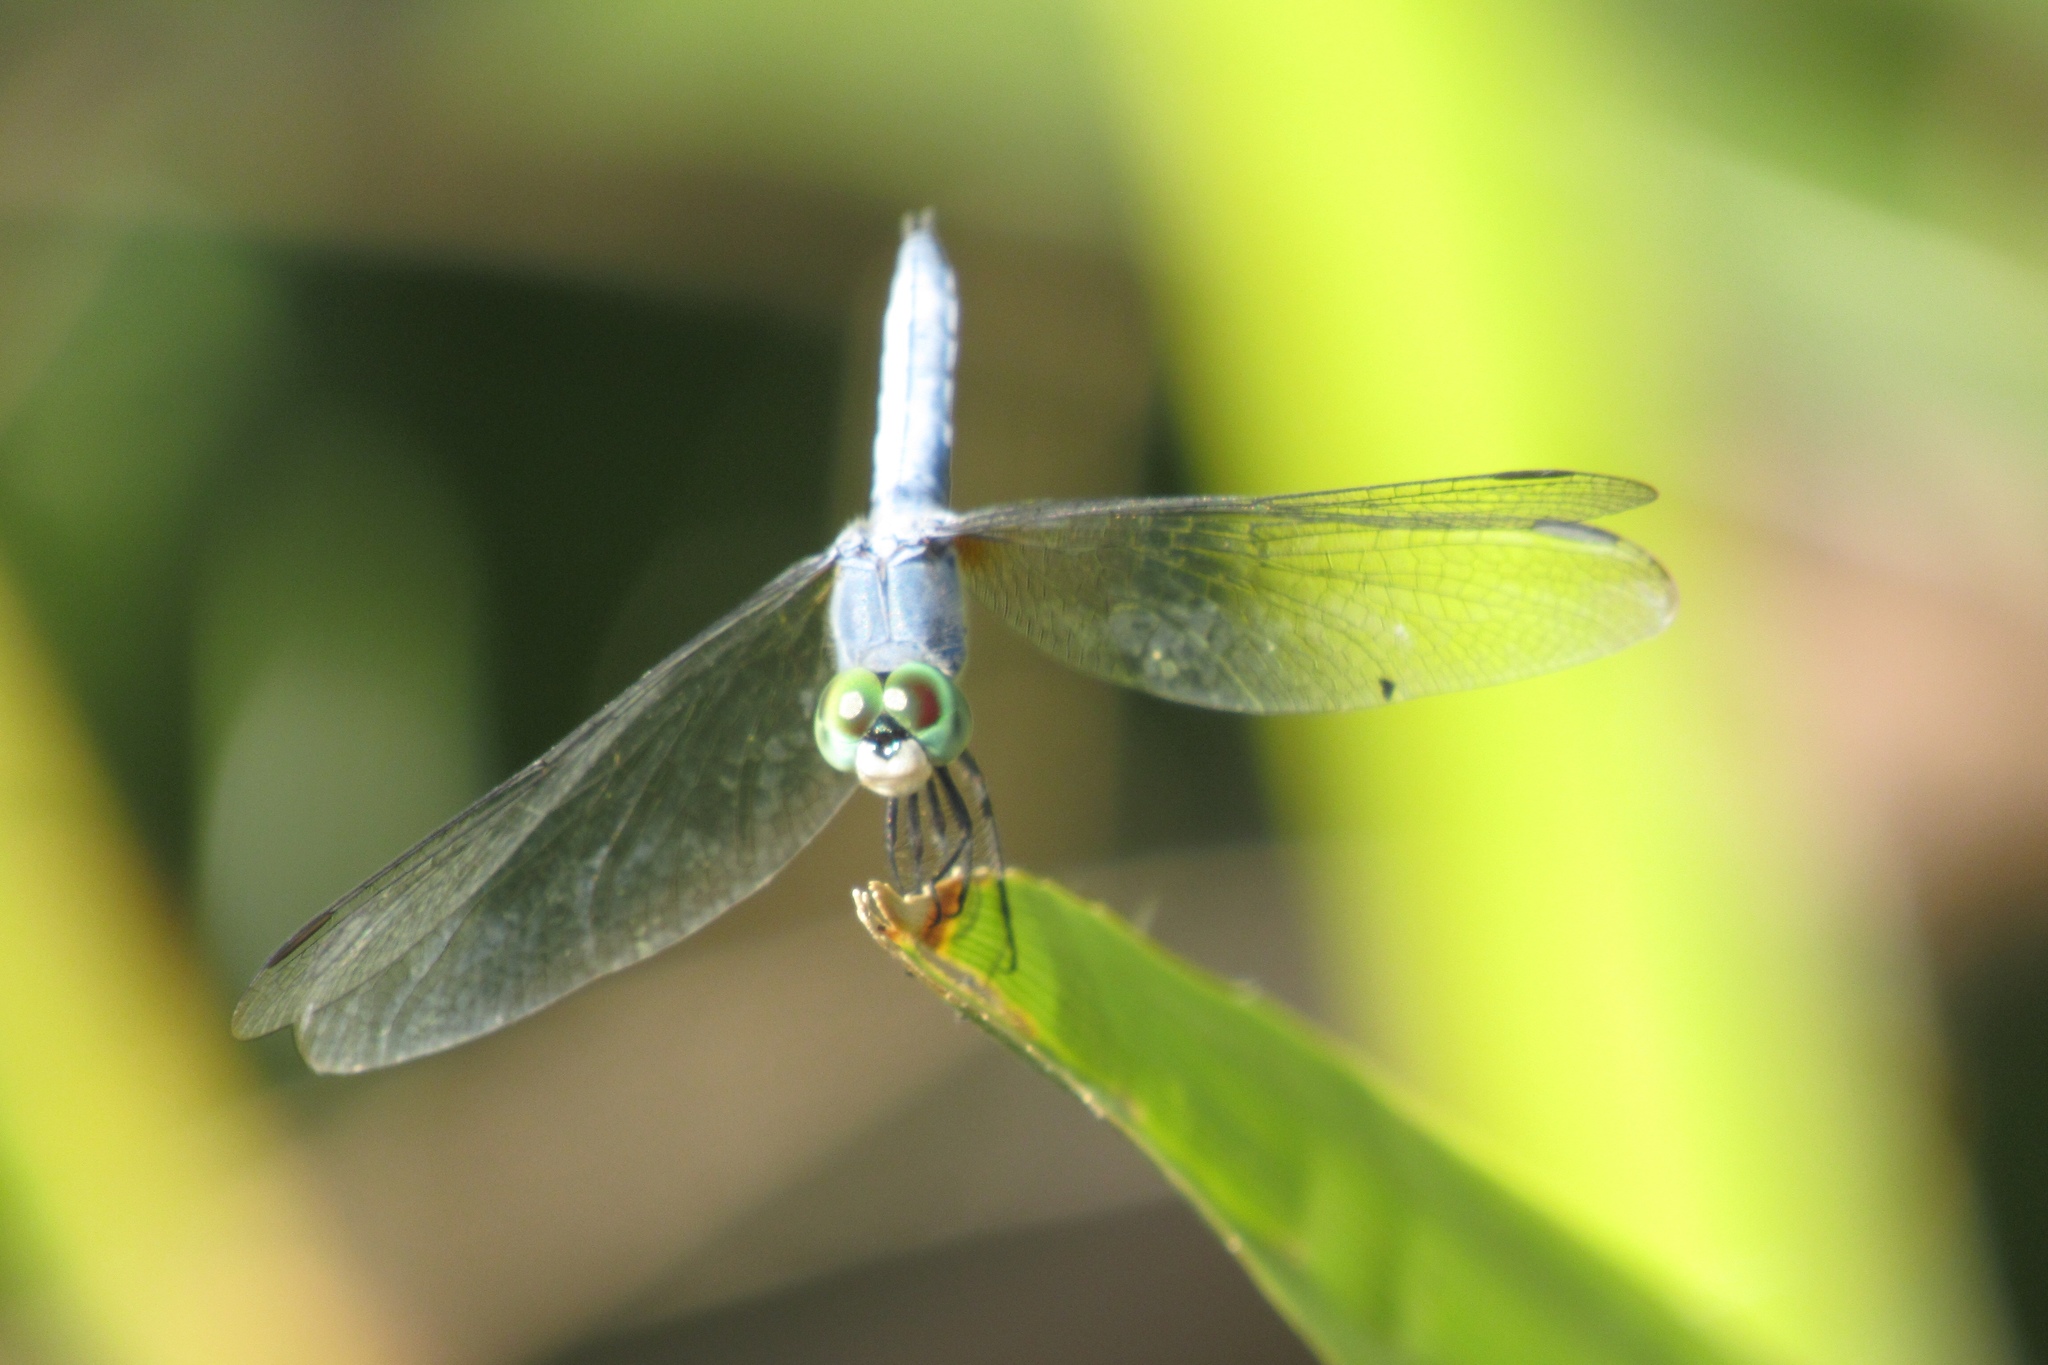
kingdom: Animalia
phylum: Arthropoda
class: Insecta
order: Odonata
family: Libellulidae
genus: Pachydiplax
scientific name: Pachydiplax longipennis
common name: Blue dasher
